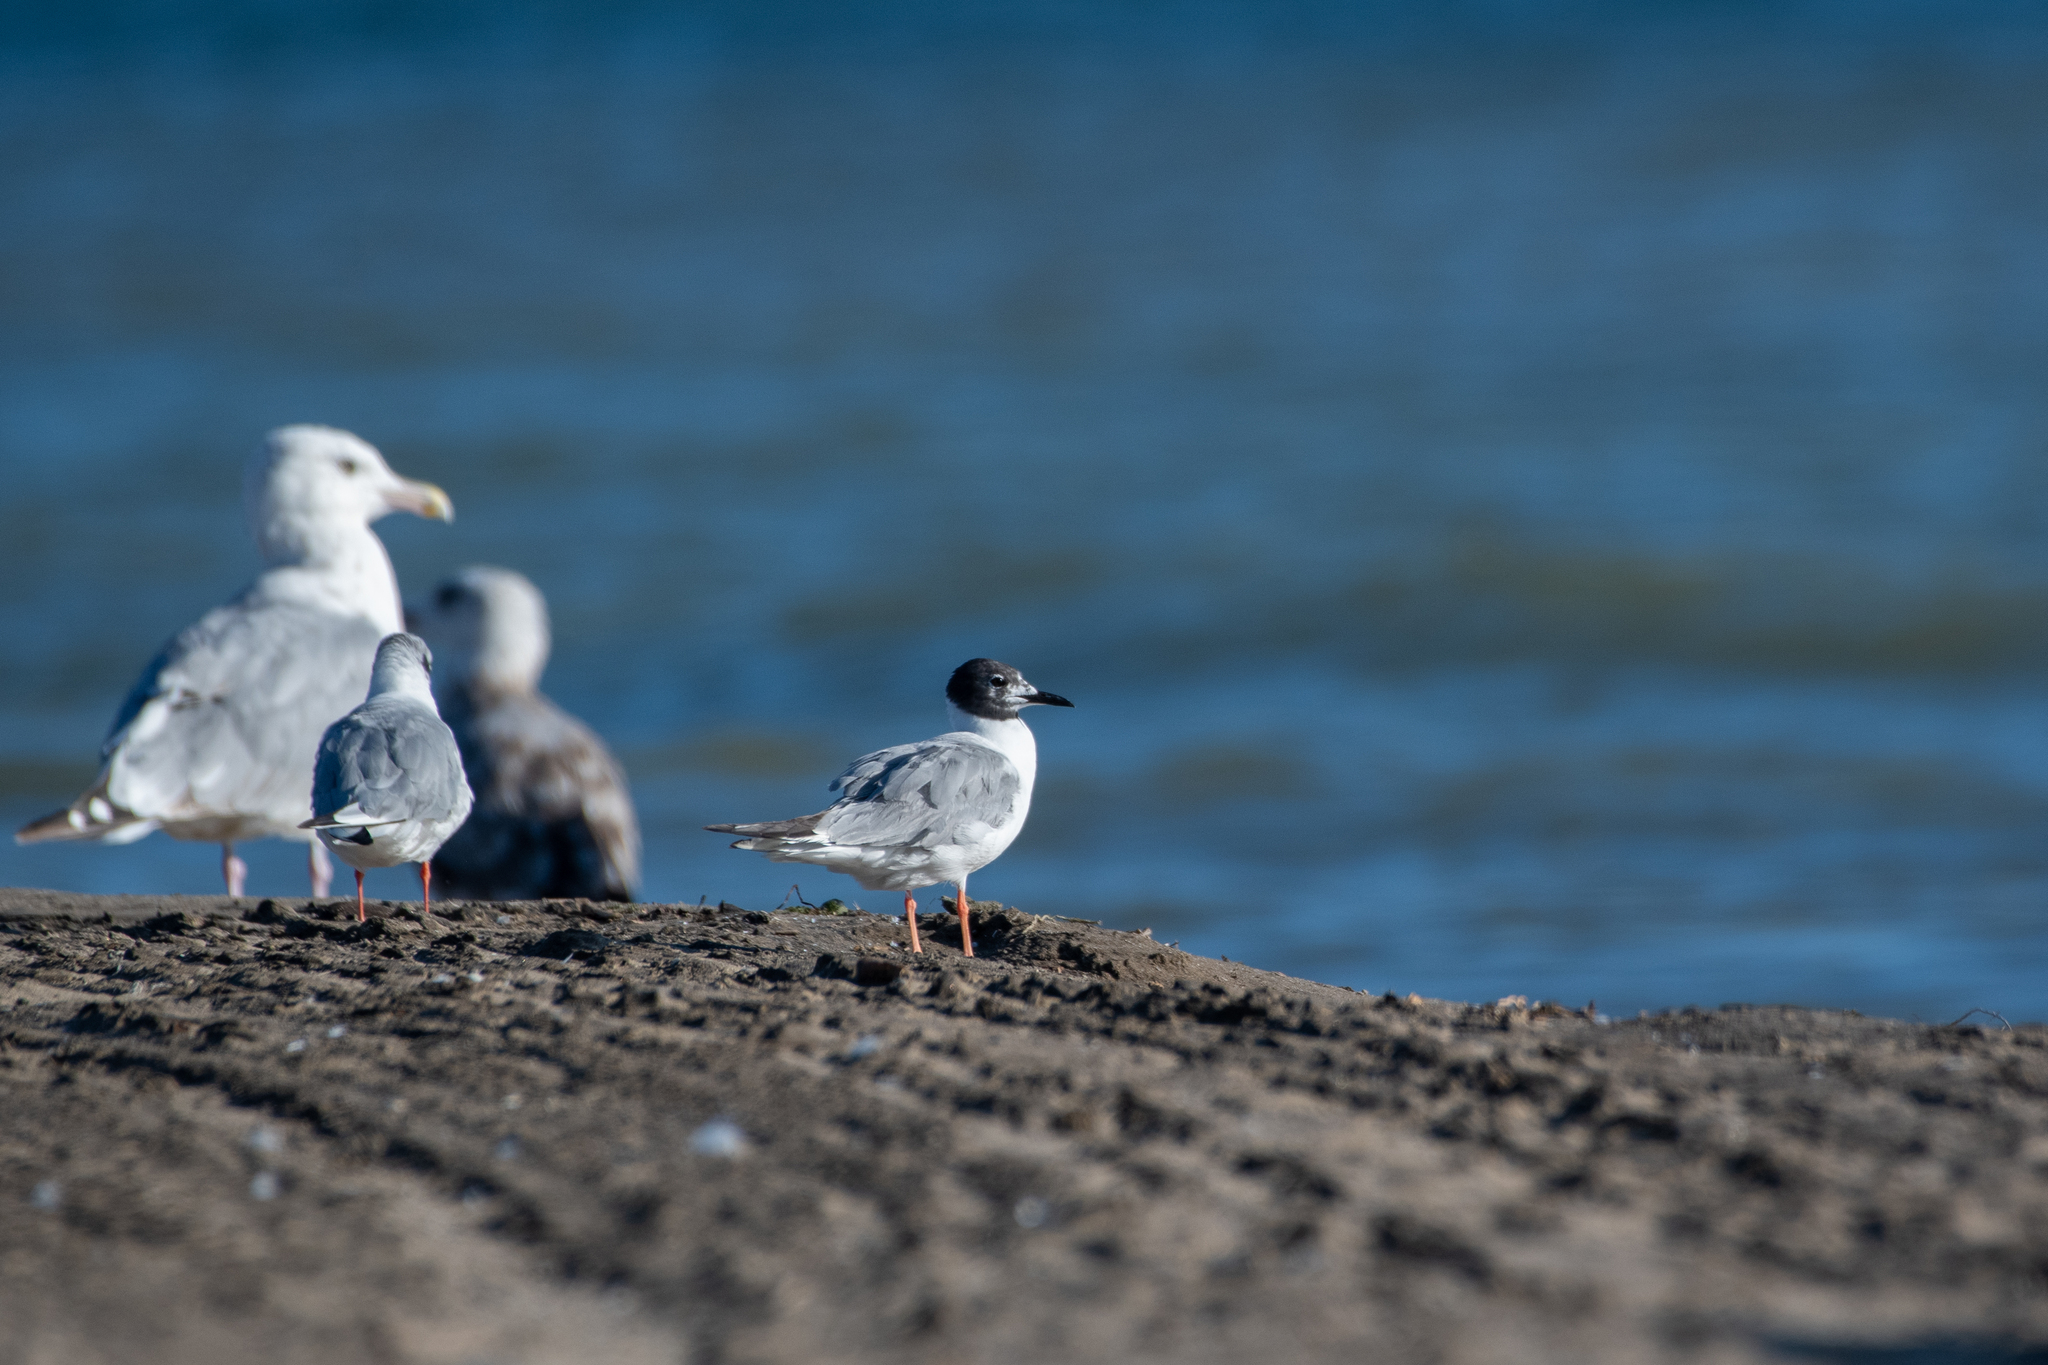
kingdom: Animalia
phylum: Chordata
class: Aves
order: Charadriiformes
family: Laridae
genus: Chroicocephalus
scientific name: Chroicocephalus philadelphia
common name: Bonaparte's gull
